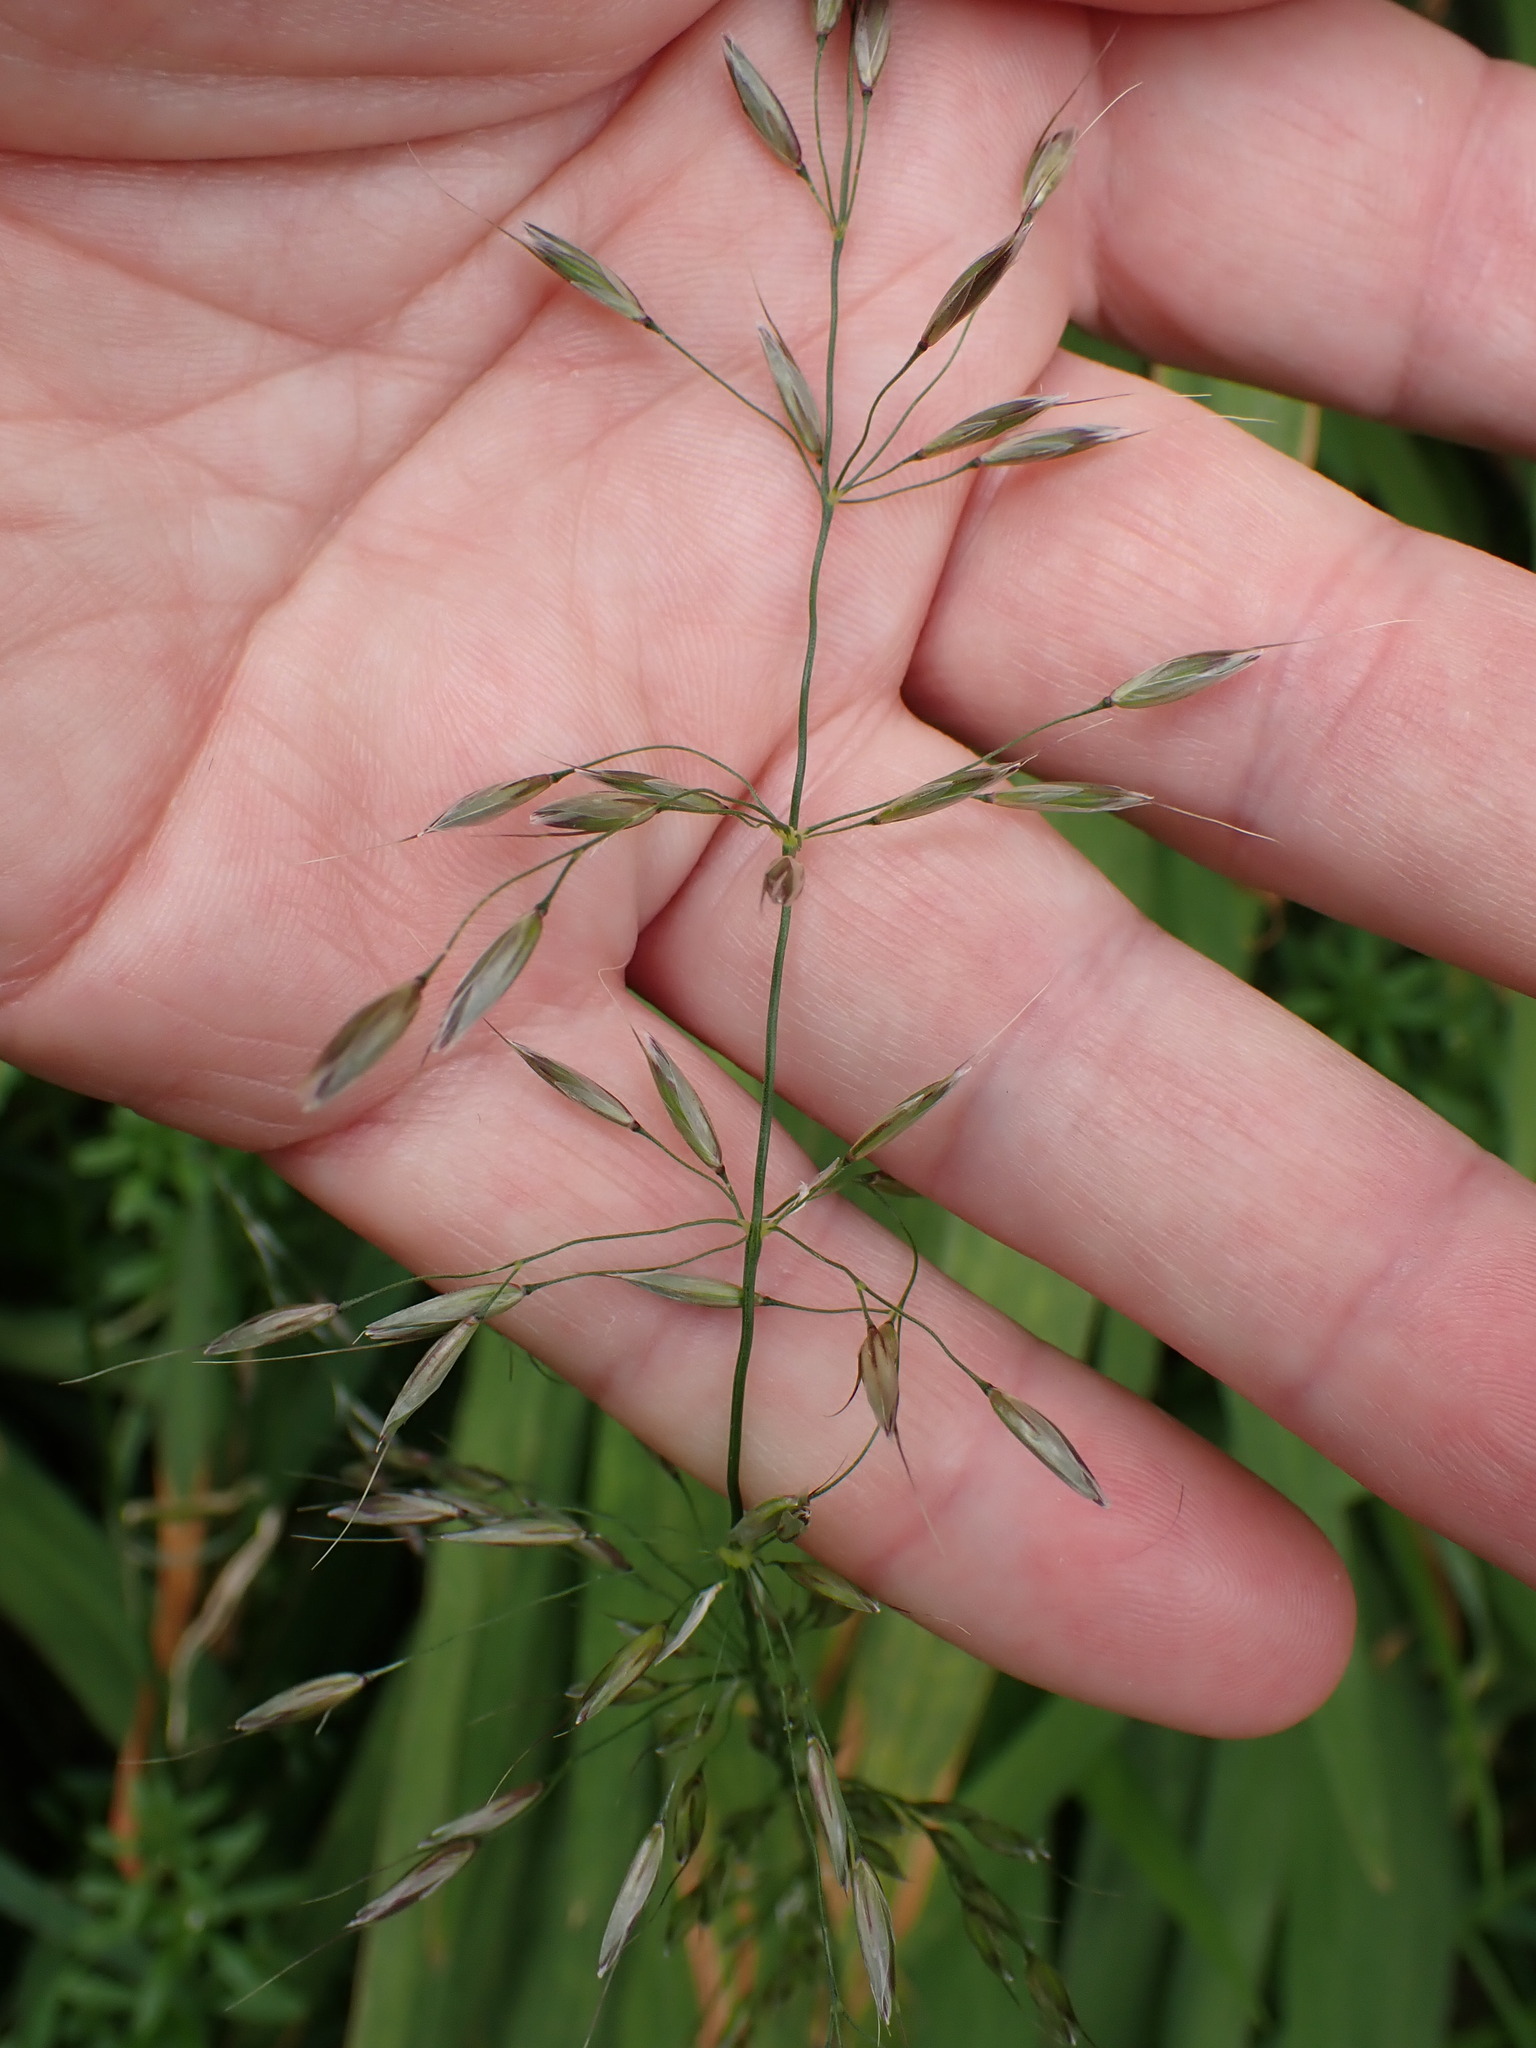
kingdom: Plantae
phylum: Tracheophyta
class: Liliopsida
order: Poales
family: Poaceae
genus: Arrhenatherum
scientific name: Arrhenatherum elatius
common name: Tall oatgrass
